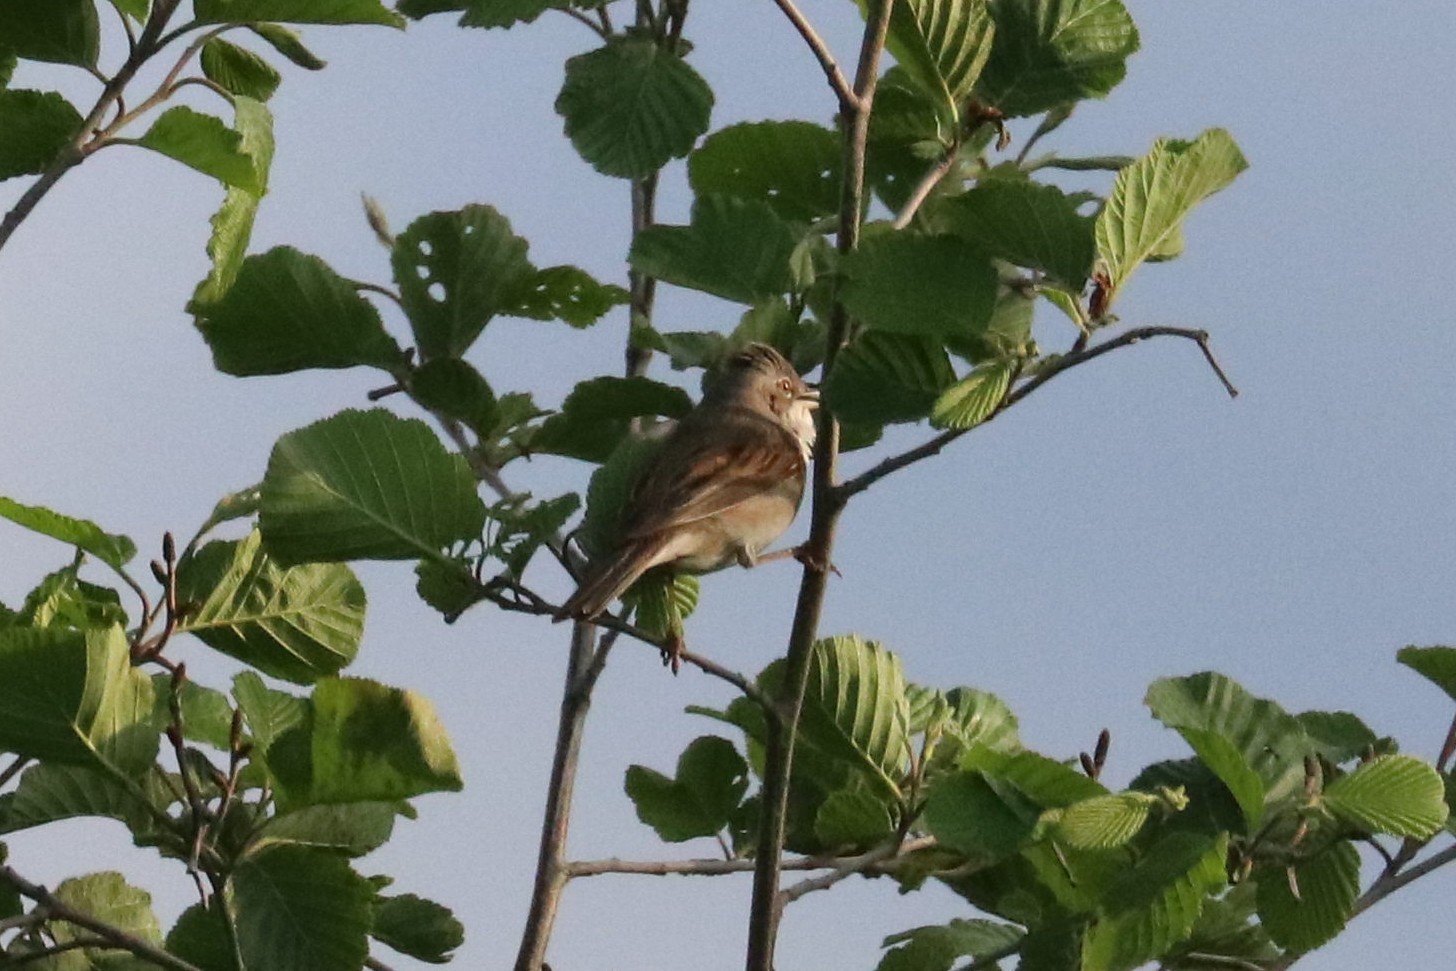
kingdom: Animalia
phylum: Chordata
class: Aves
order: Passeriformes
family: Sylviidae
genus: Sylvia
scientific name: Sylvia communis
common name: Common whitethroat
